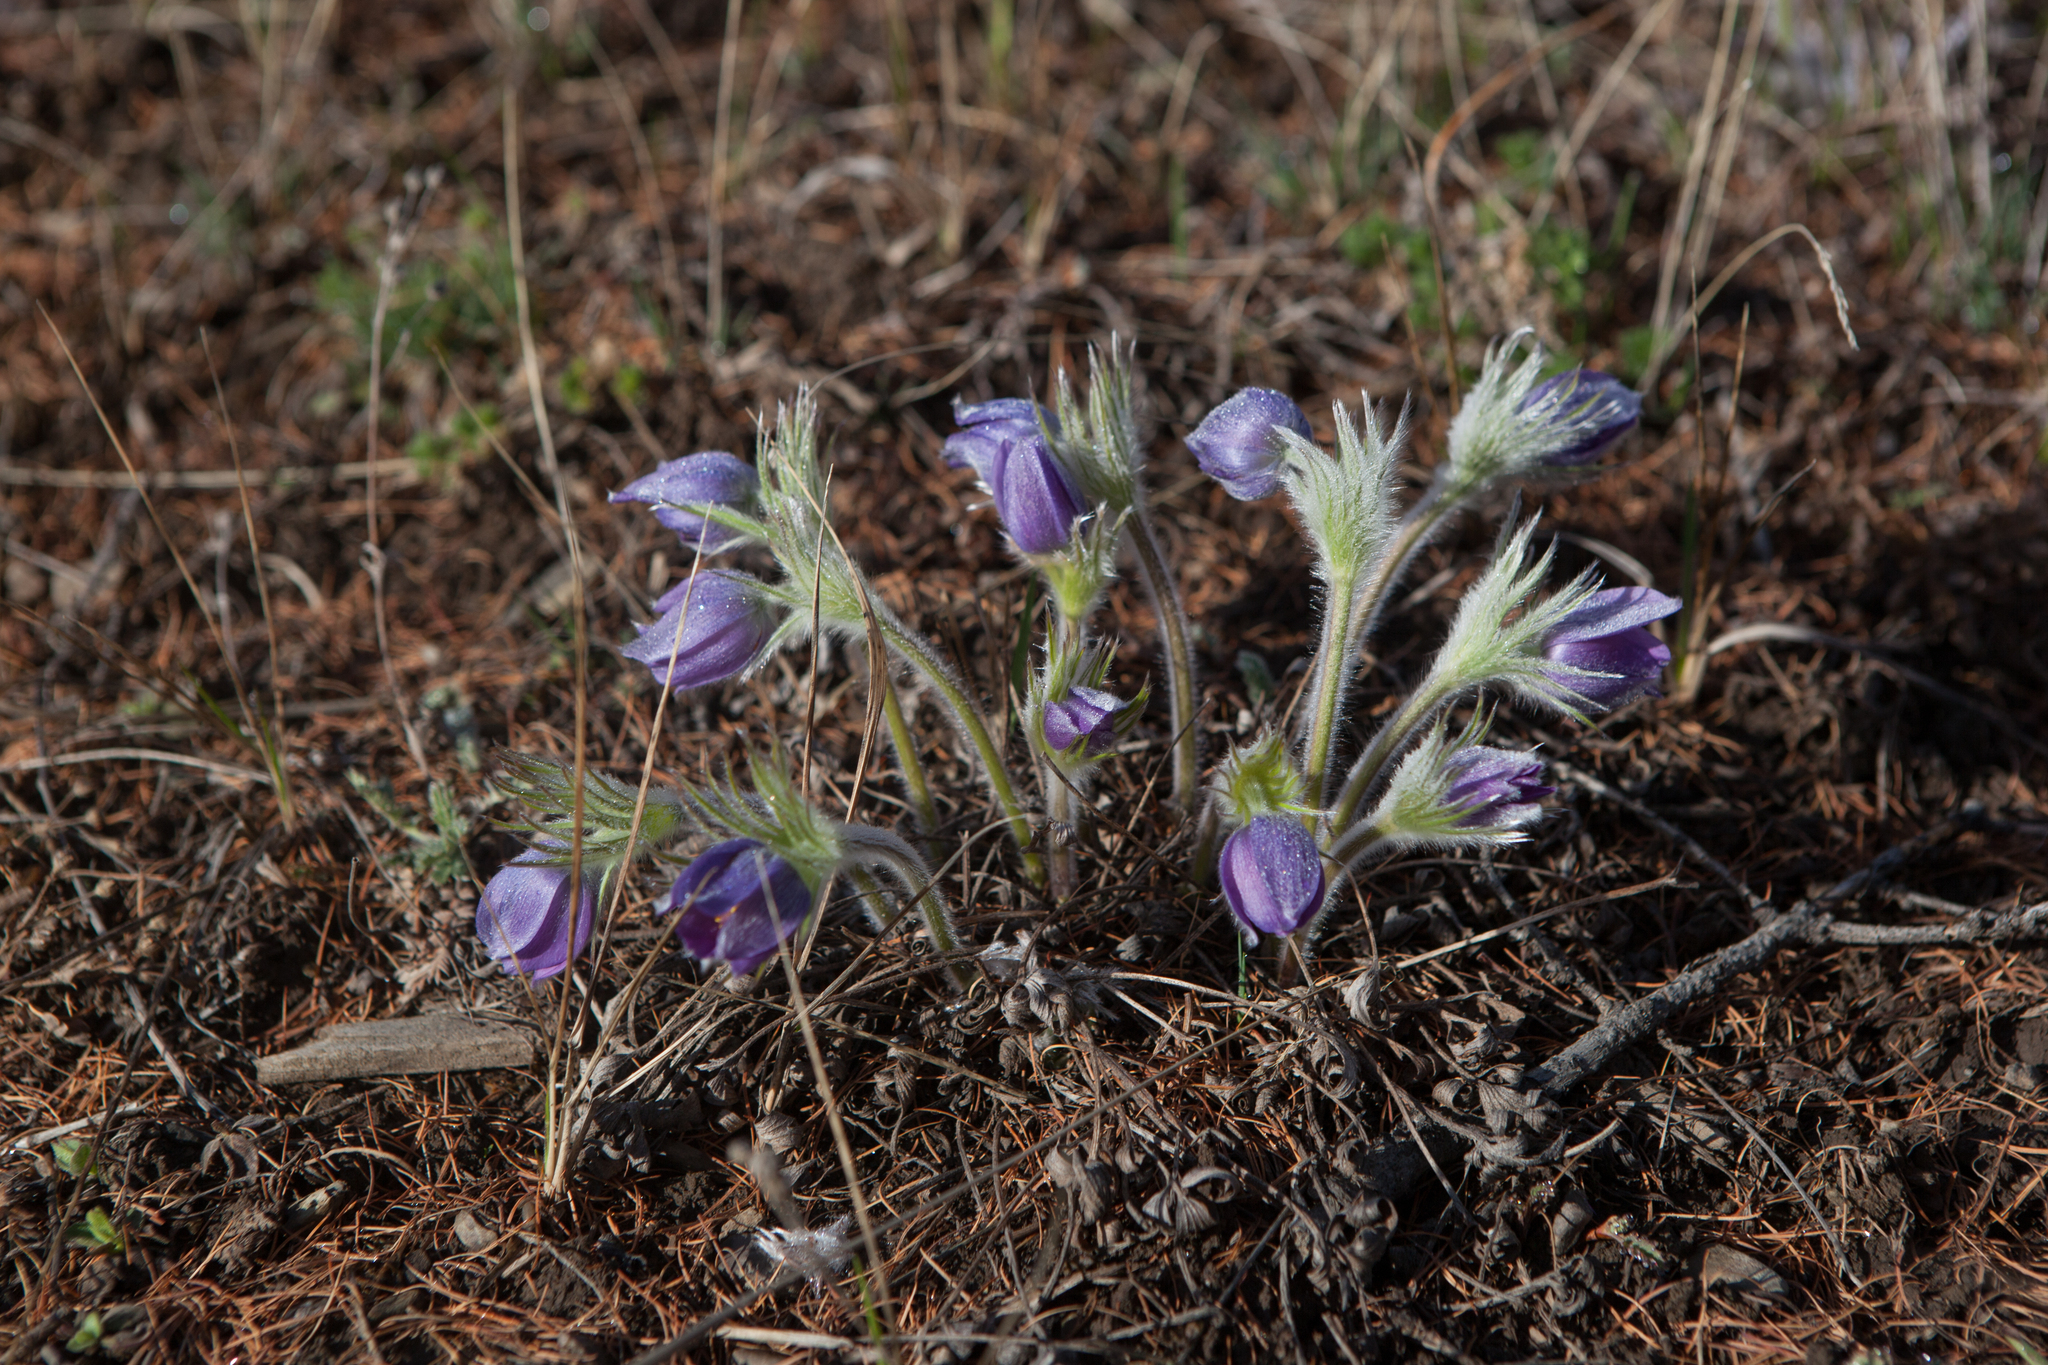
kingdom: Plantae
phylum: Tracheophyta
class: Magnoliopsida
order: Ranunculales
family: Ranunculaceae
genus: Pulsatilla
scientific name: Pulsatilla patens
